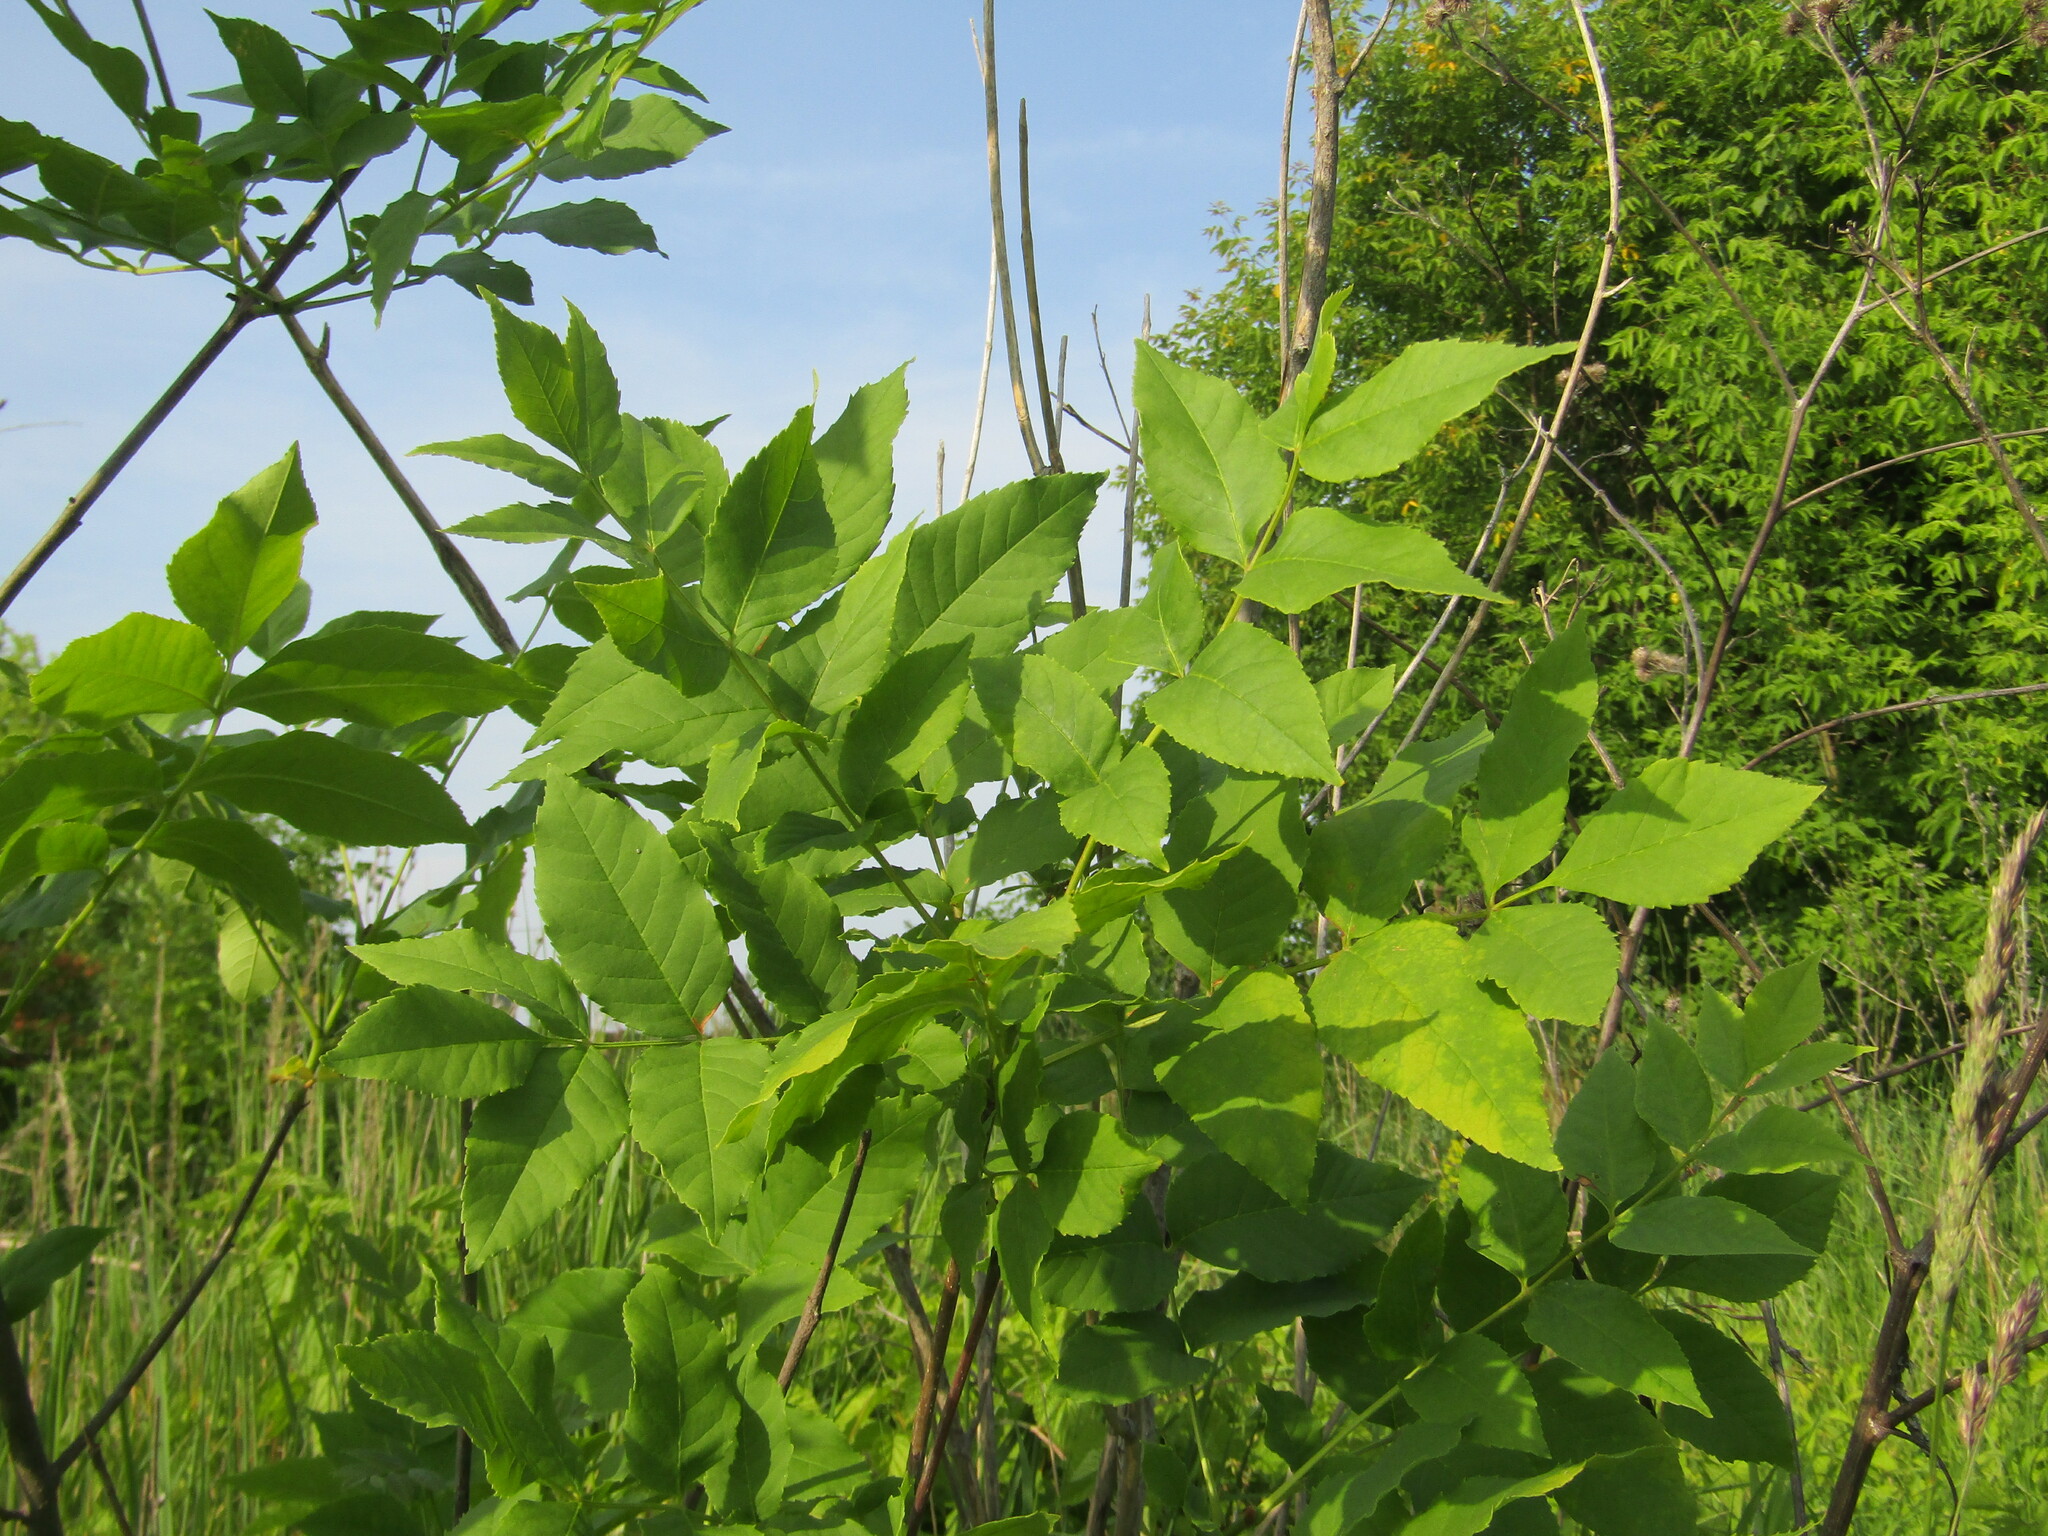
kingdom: Plantae
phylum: Tracheophyta
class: Magnoliopsida
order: Lamiales
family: Oleaceae
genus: Fraxinus
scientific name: Fraxinus pennsylvanica
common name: Green ash
